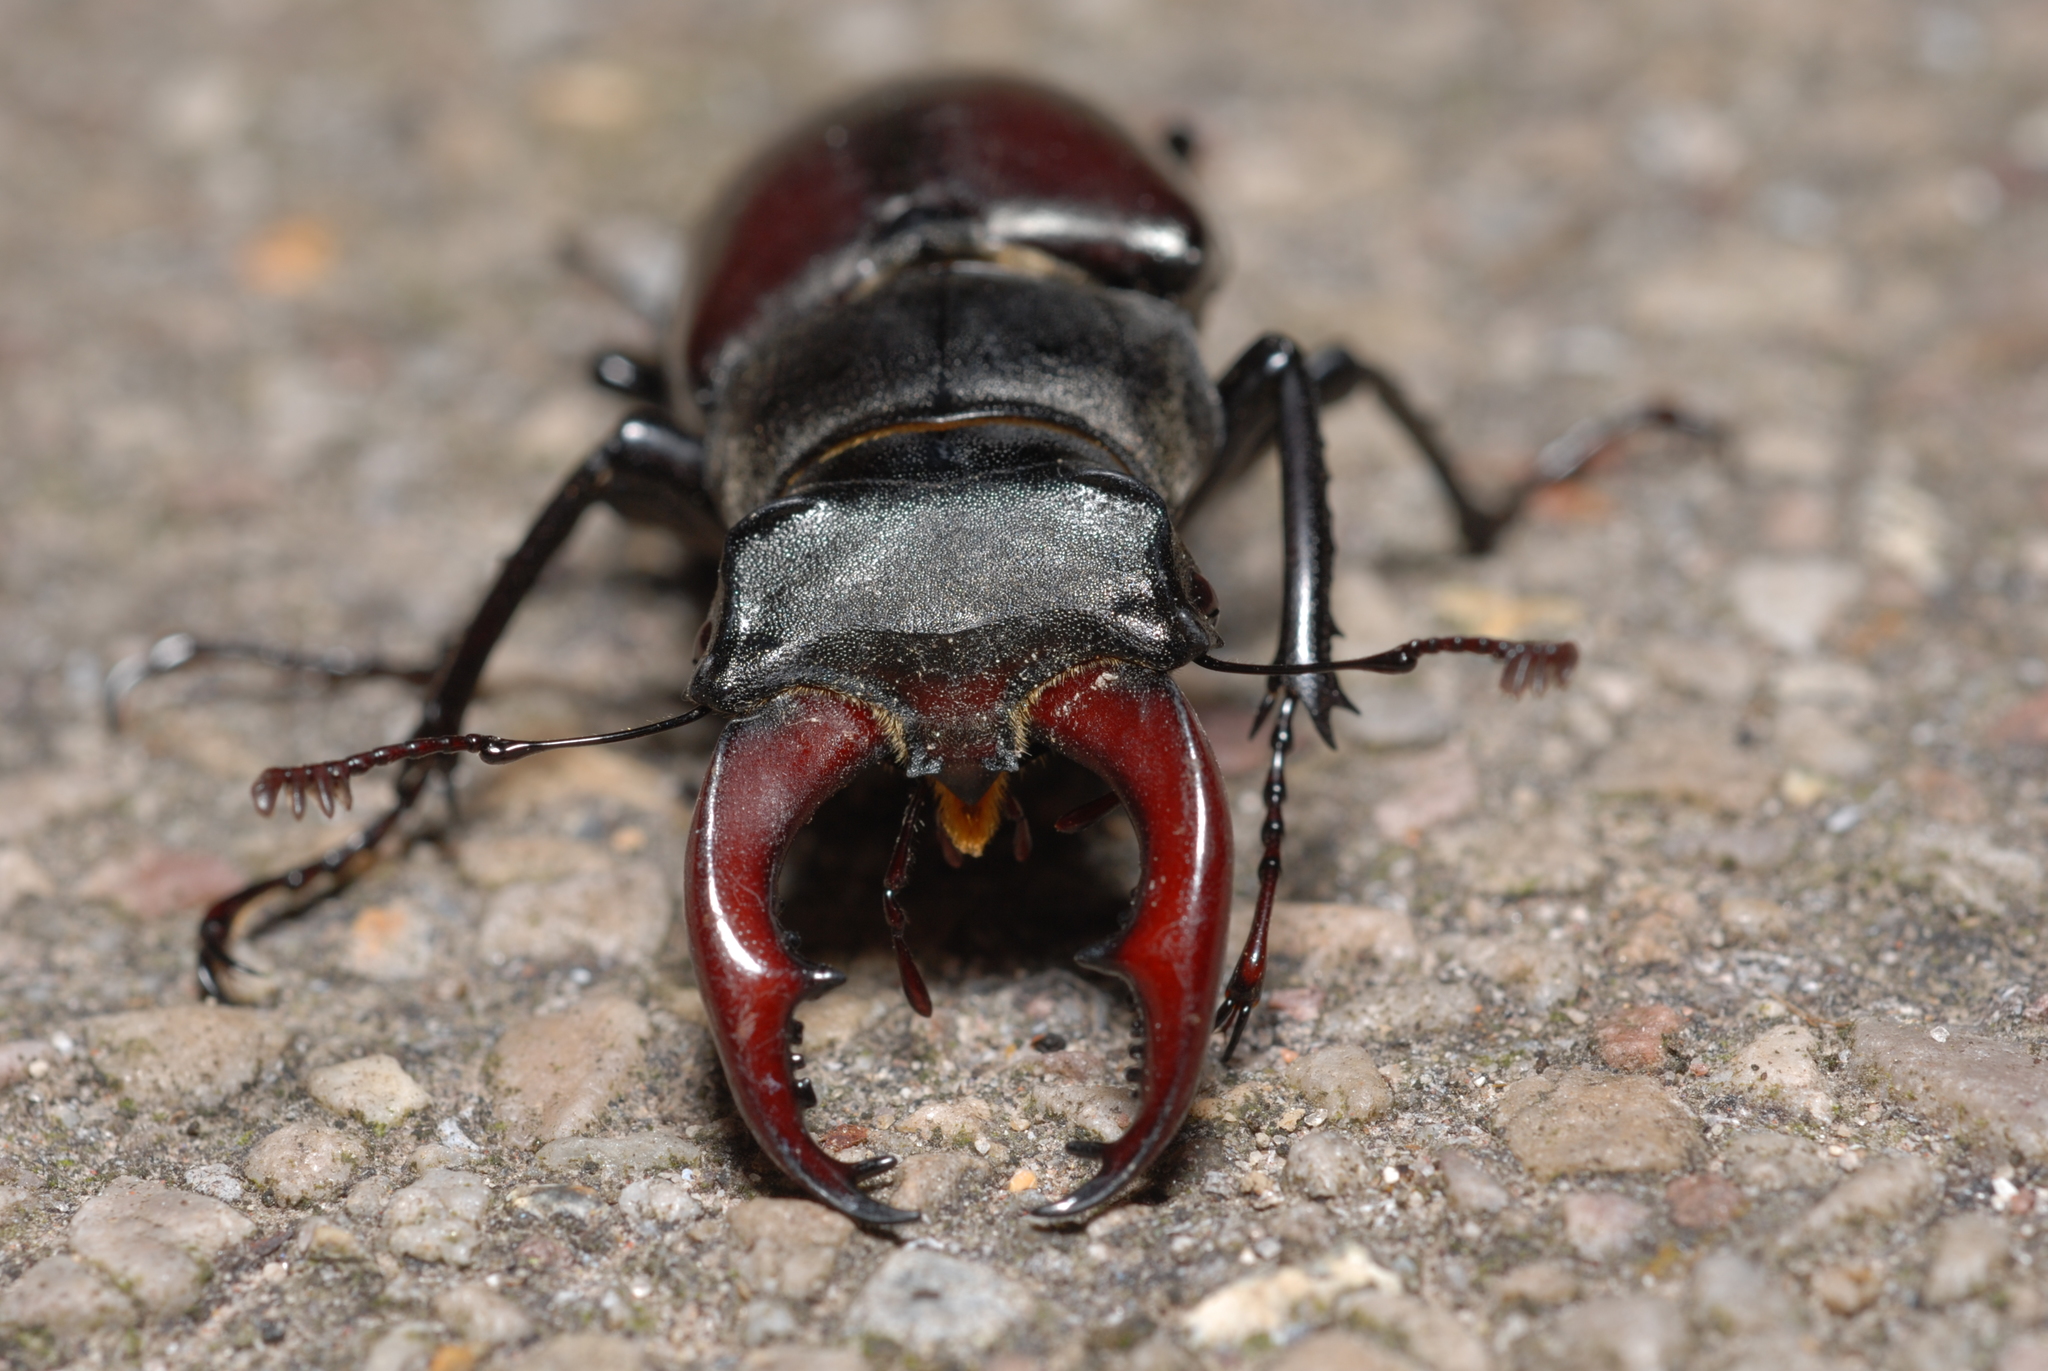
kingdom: Animalia
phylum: Arthropoda
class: Insecta
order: Coleoptera
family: Lucanidae
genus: Lucanus
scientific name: Lucanus cervus
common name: Stag beetle
